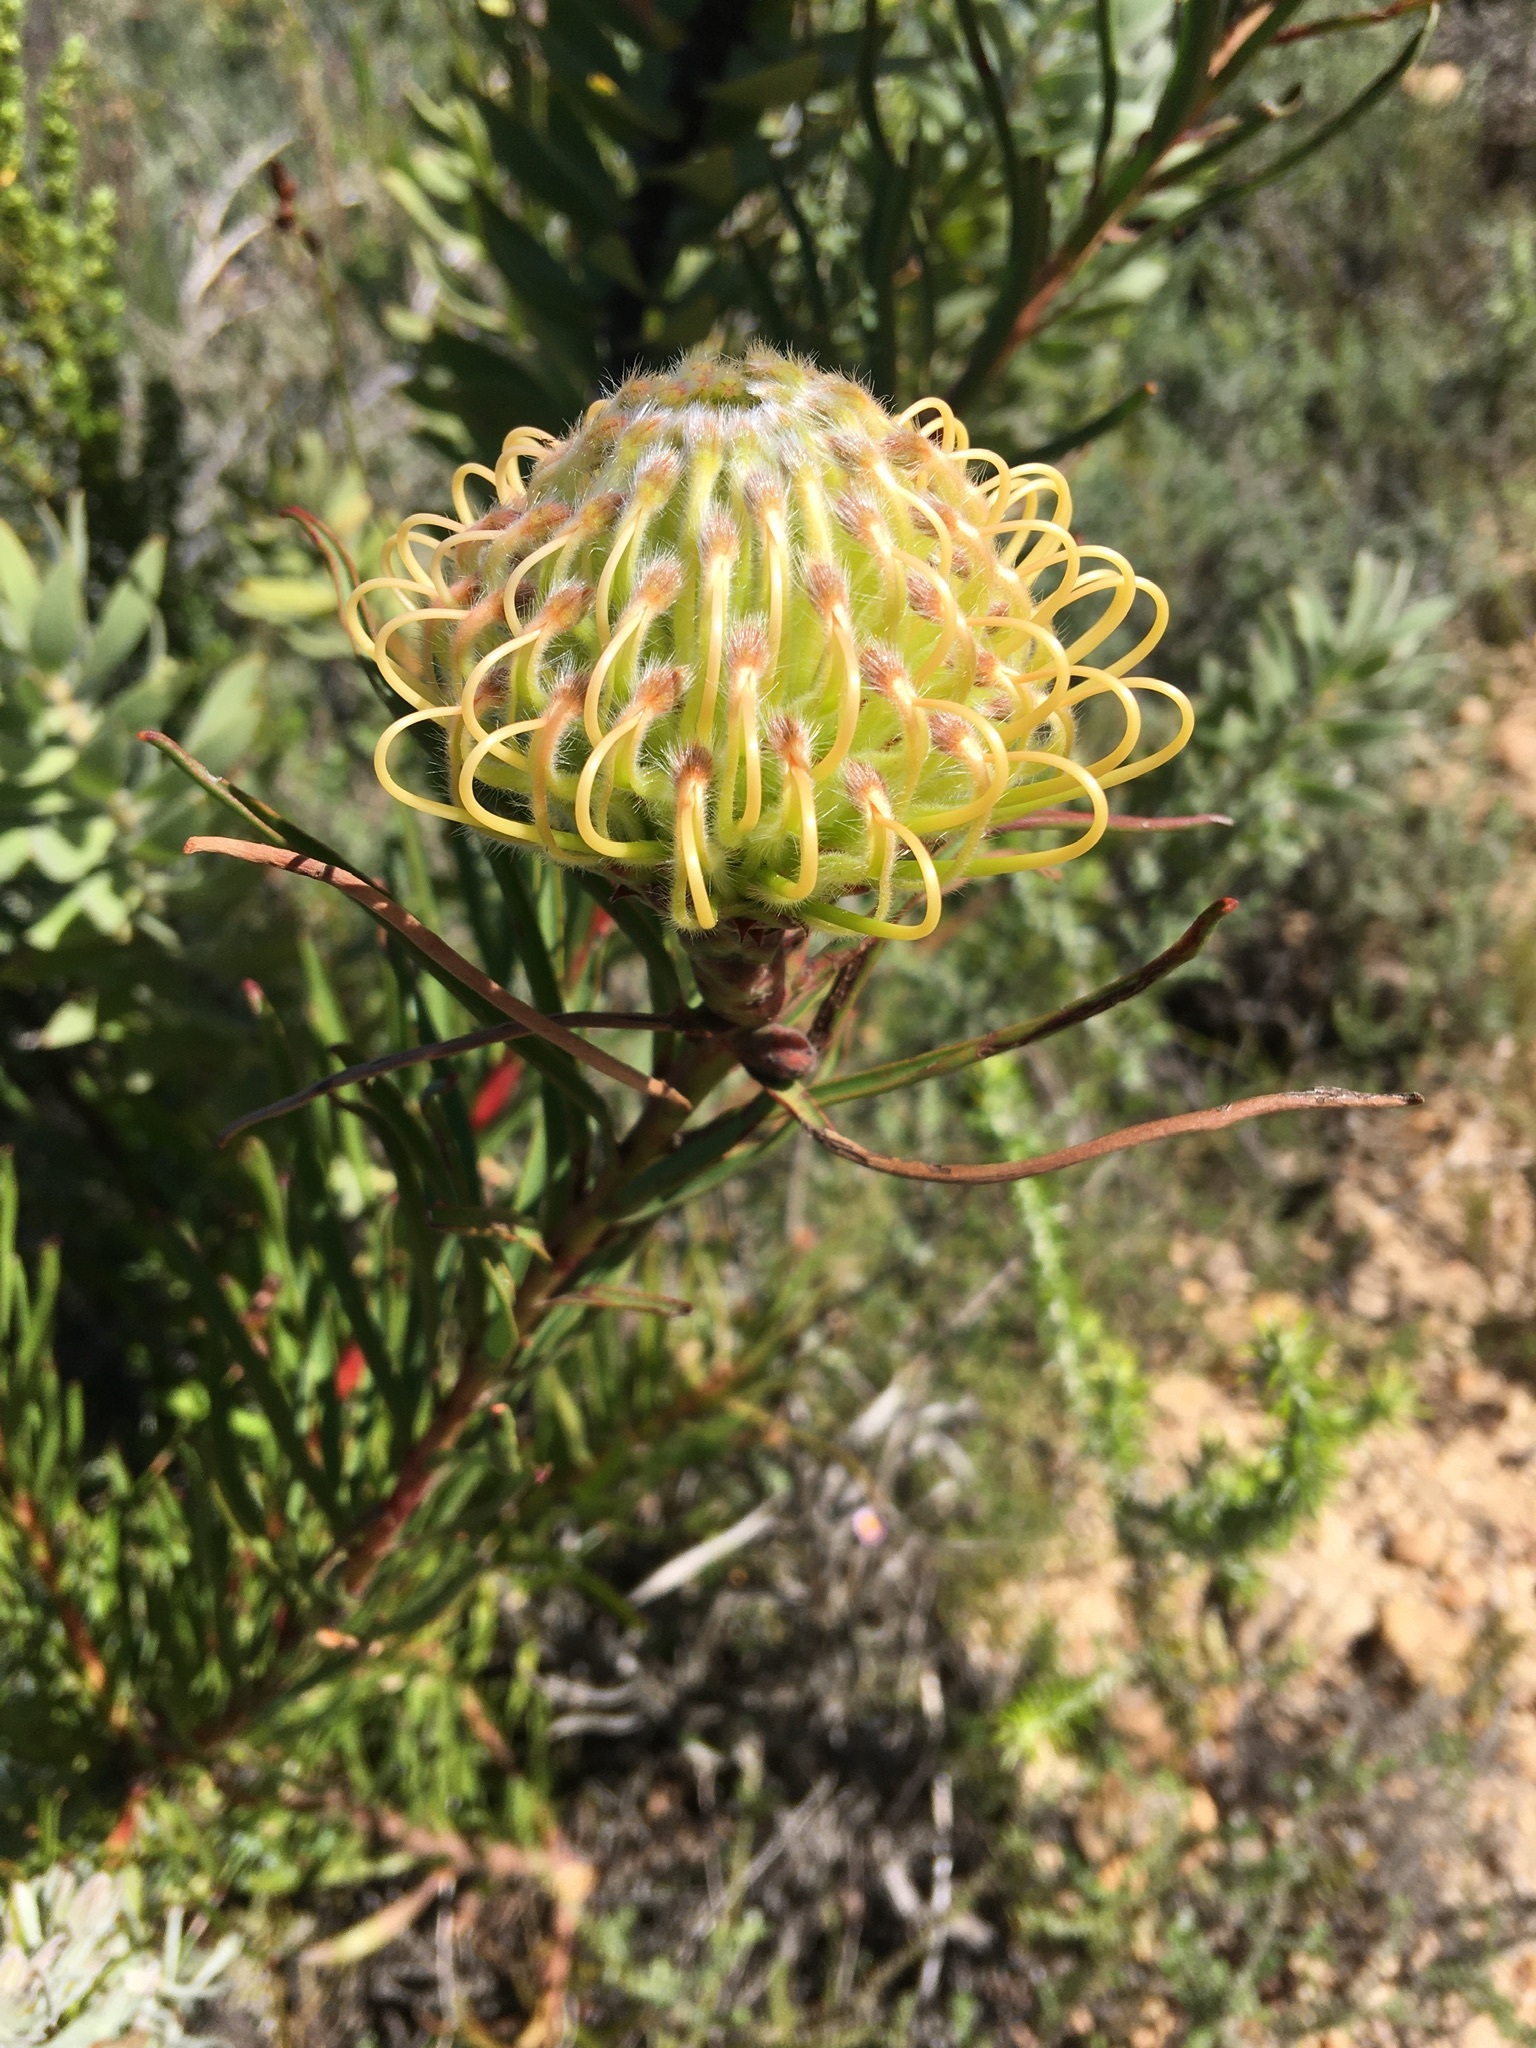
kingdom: Plantae
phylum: Tracheophyta
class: Magnoliopsida
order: Proteales
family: Proteaceae
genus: Leucospermum
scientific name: Leucospermum lineare
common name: Needle-leaf pincushion
